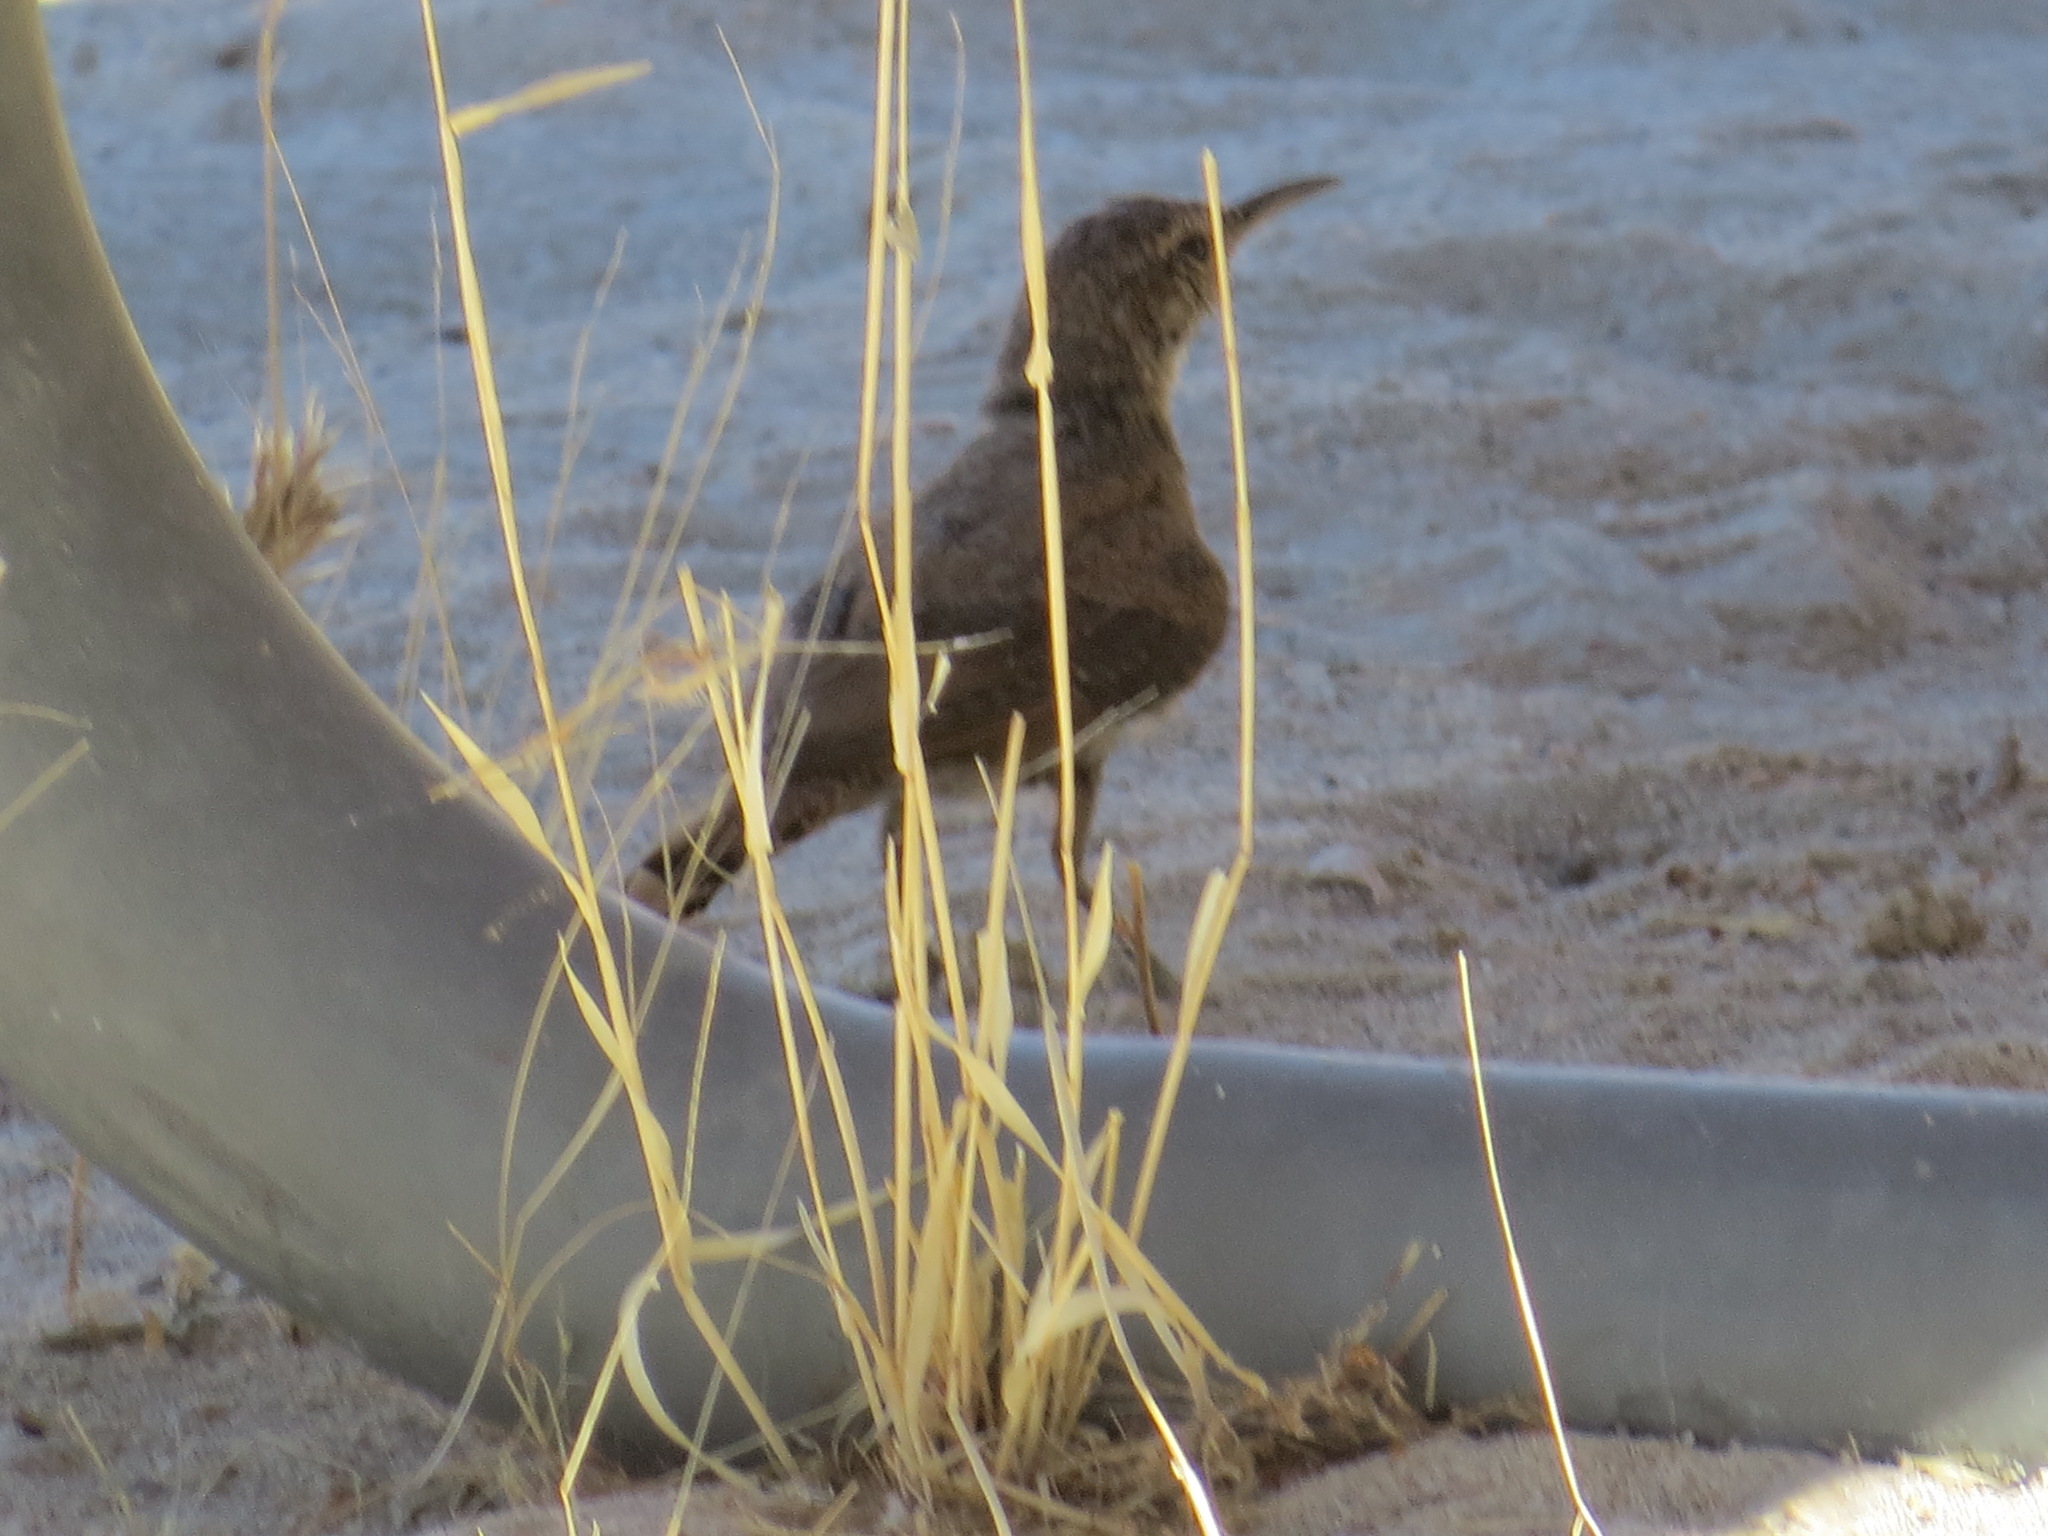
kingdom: Animalia
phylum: Chordata
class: Aves
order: Passeriformes
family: Troglodytidae
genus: Salpinctes
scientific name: Salpinctes obsoletus
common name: Rock wren
